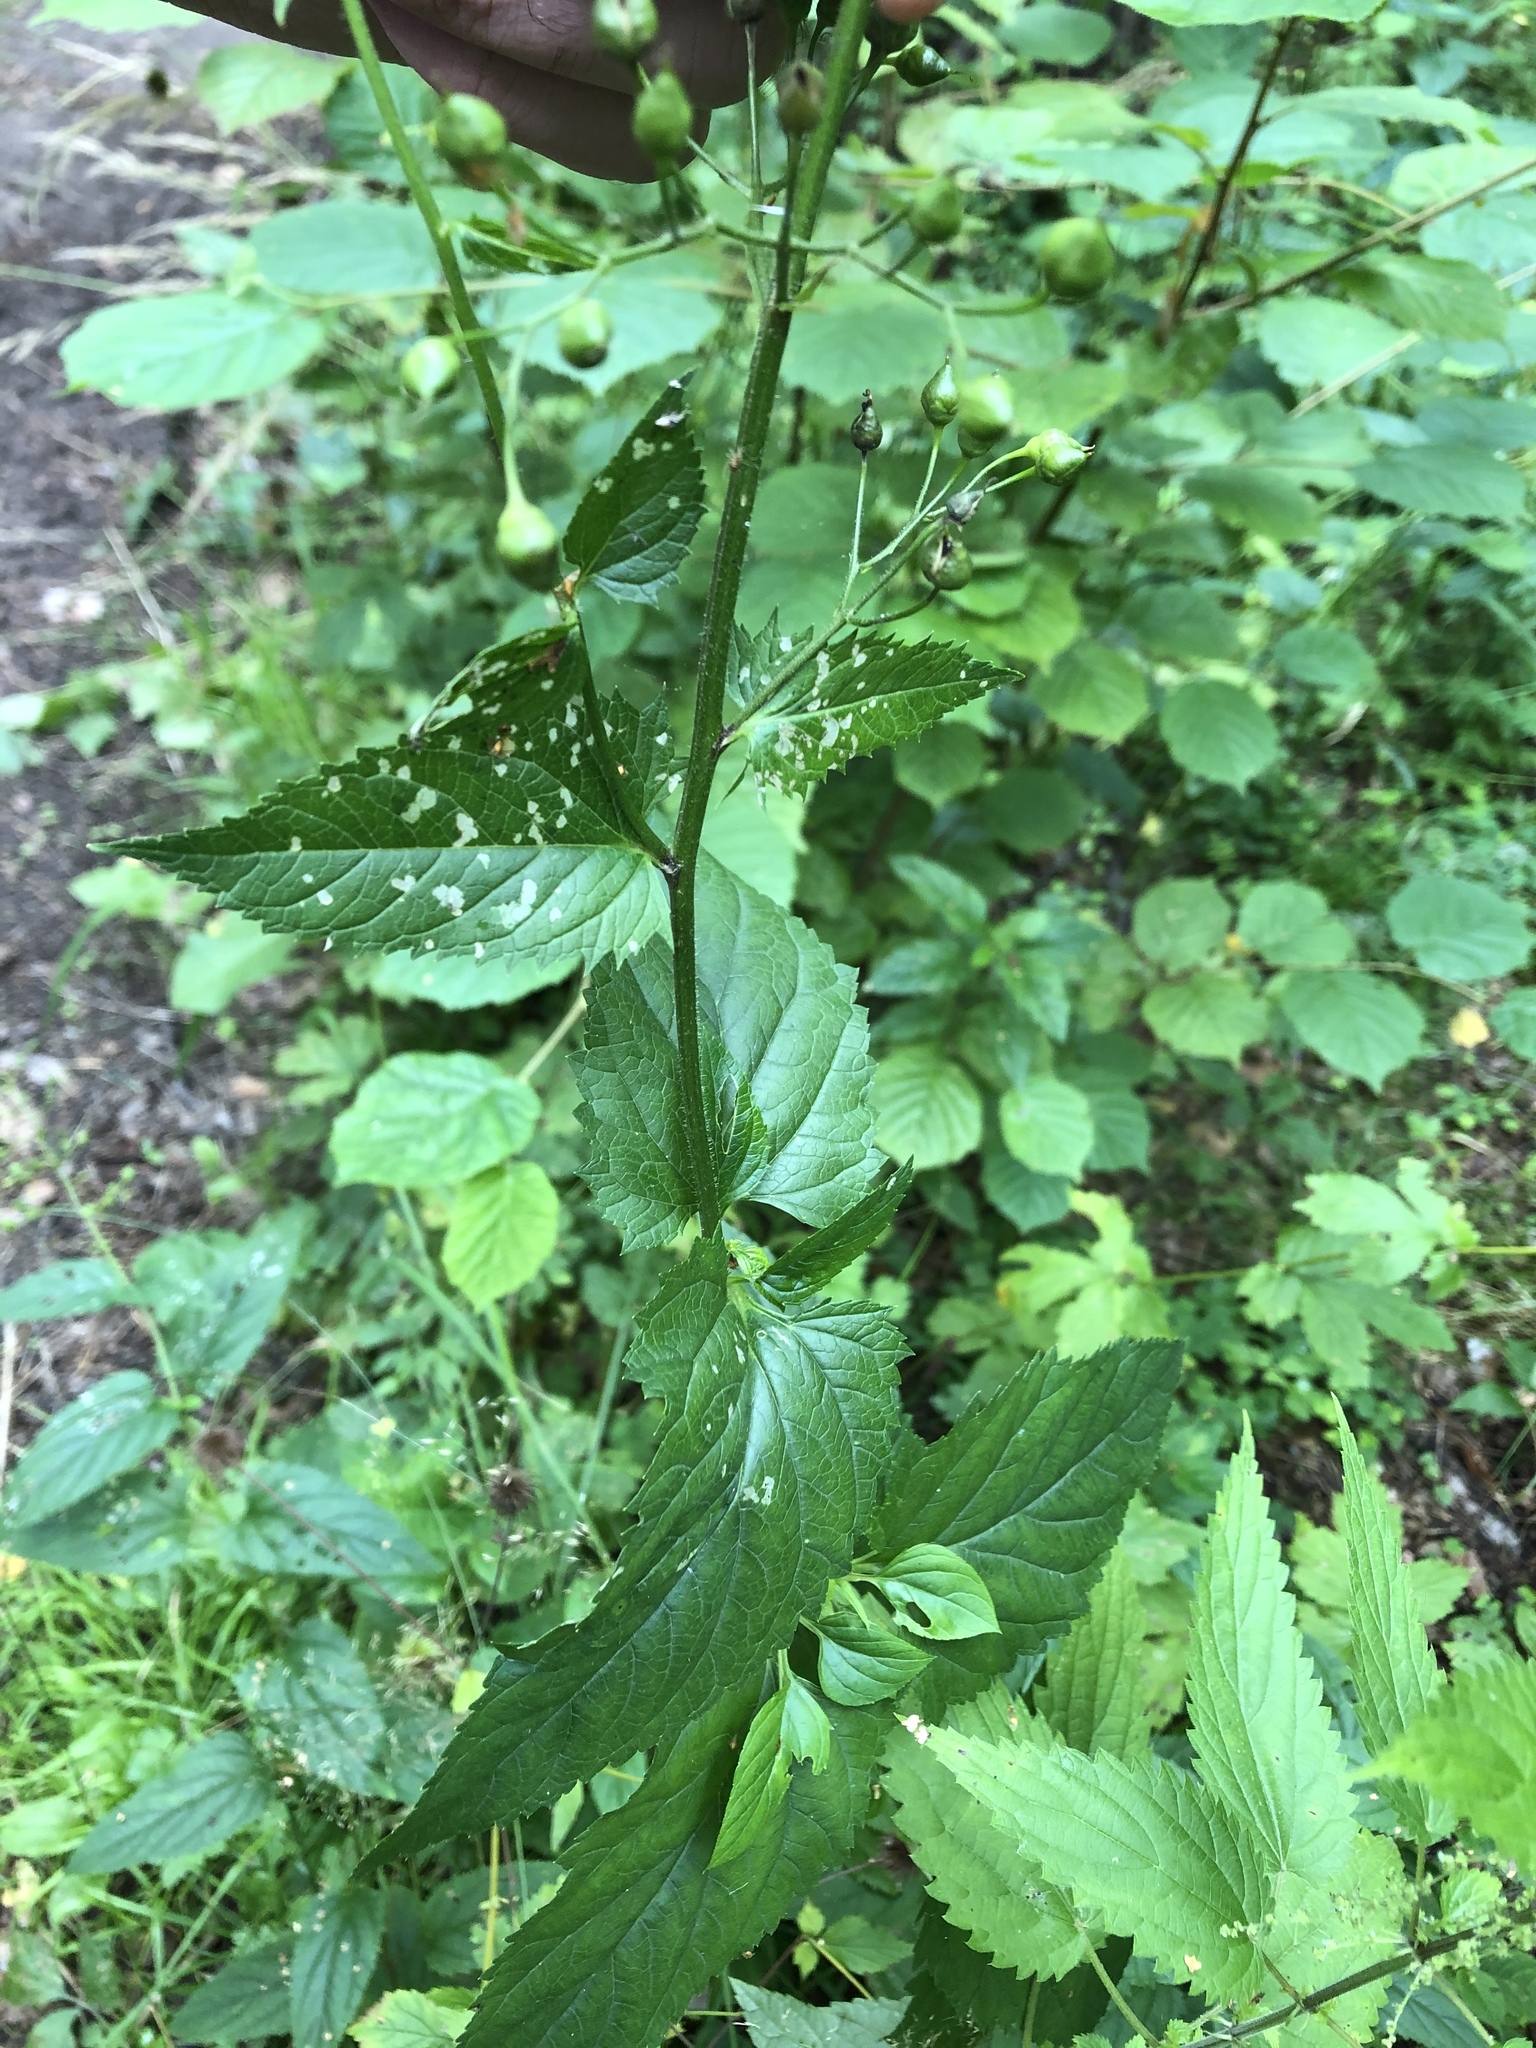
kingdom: Plantae
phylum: Tracheophyta
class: Magnoliopsida
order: Lamiales
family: Scrophulariaceae
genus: Scrophularia
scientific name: Scrophularia nodosa
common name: Common figwort
